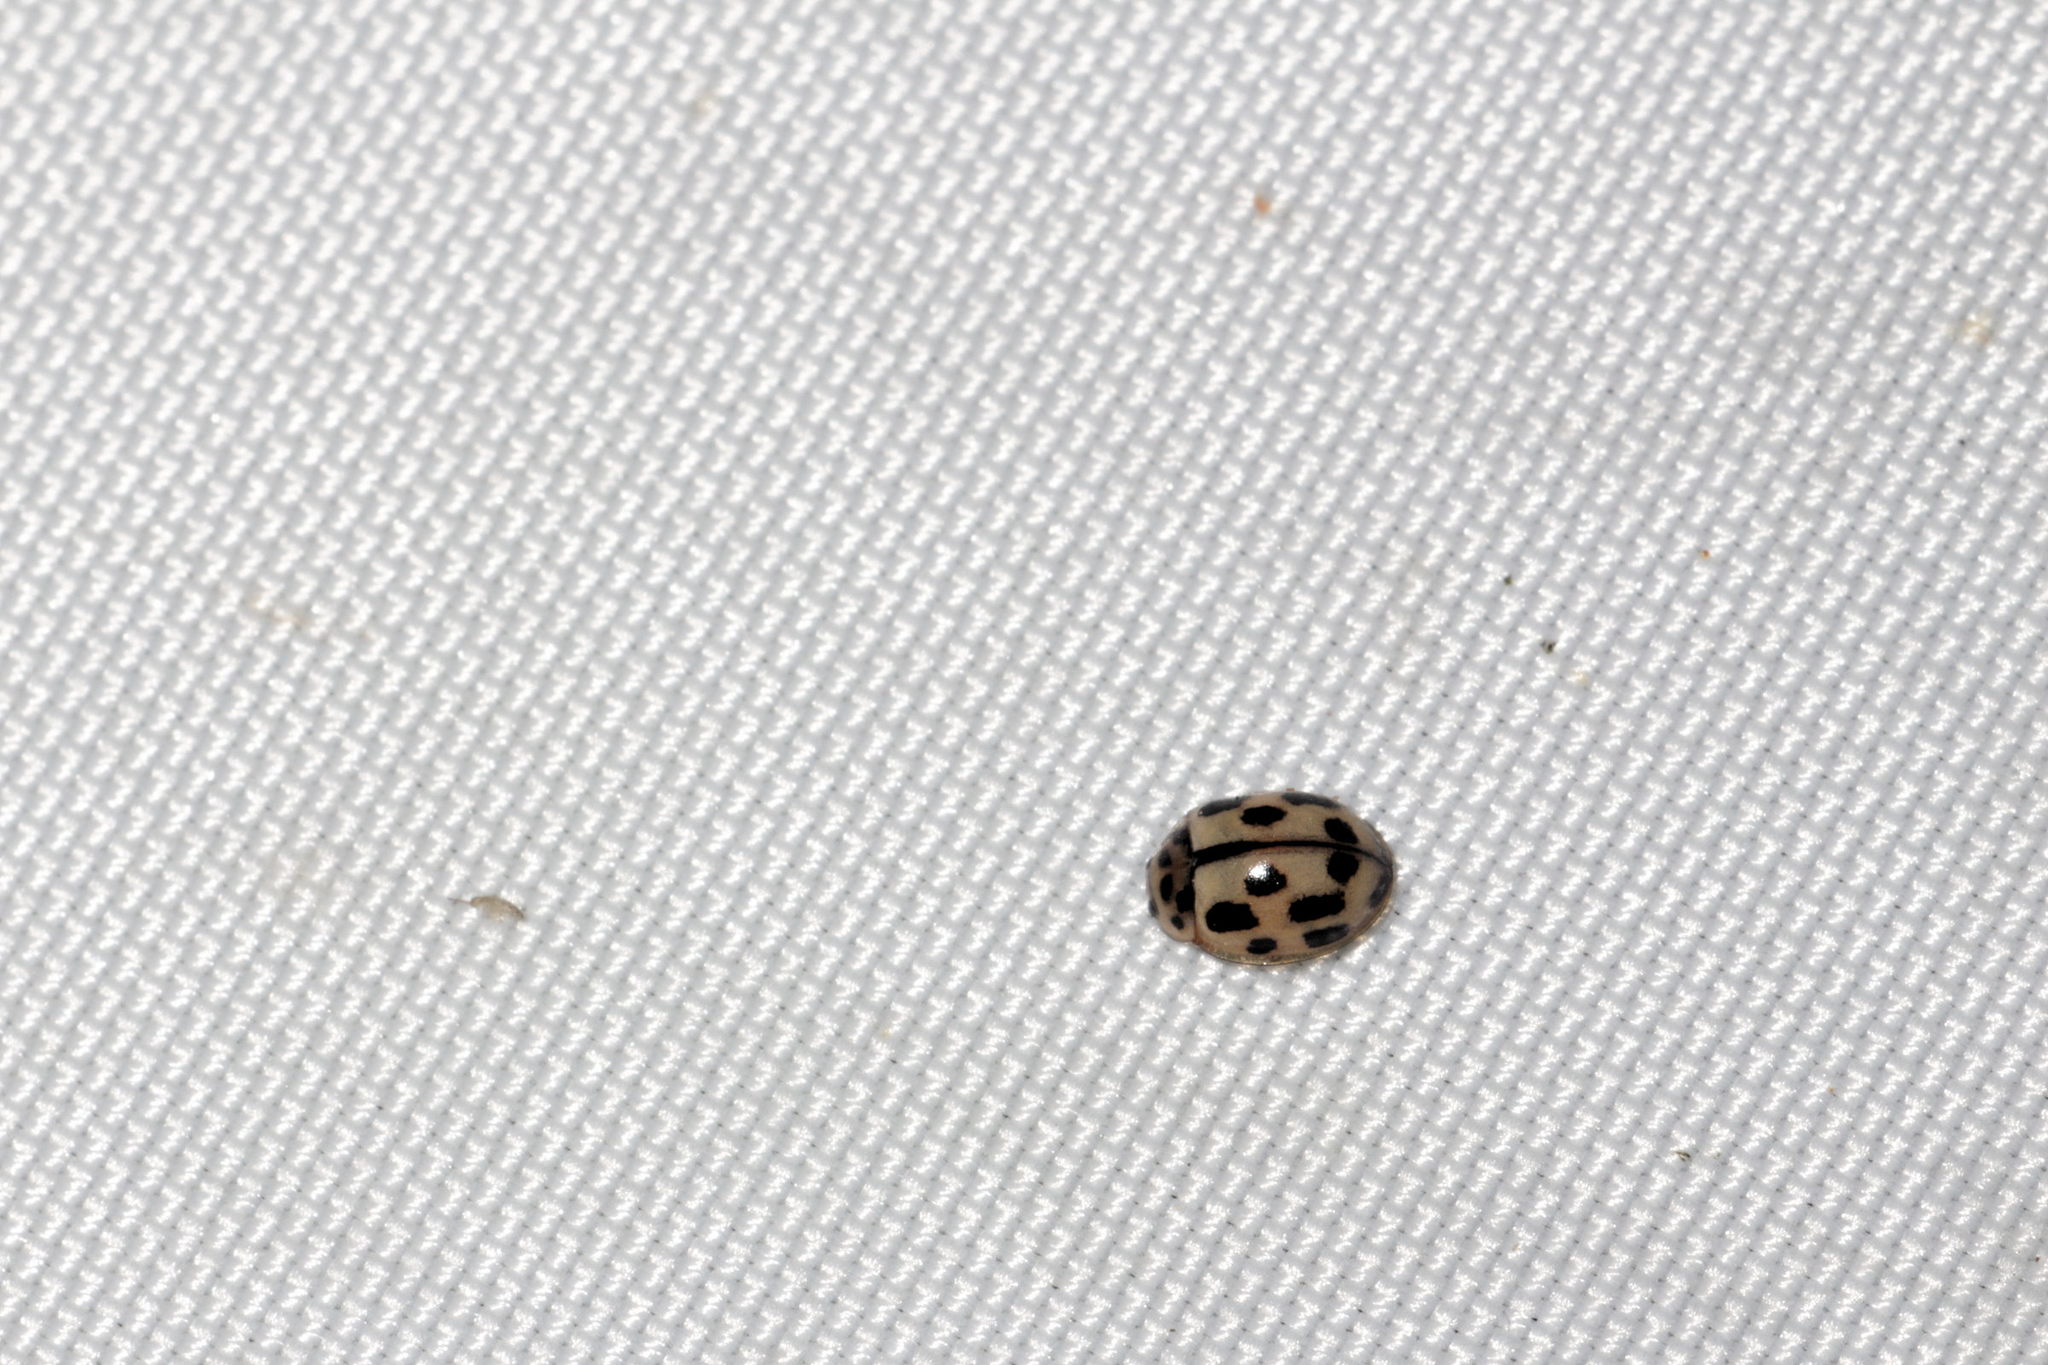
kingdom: Animalia
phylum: Arthropoda
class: Insecta
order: Coleoptera
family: Coccinellidae
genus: Propylaea
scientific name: Propylaea quatuordecimpunctata
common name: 14-spotted ladybird beetle
